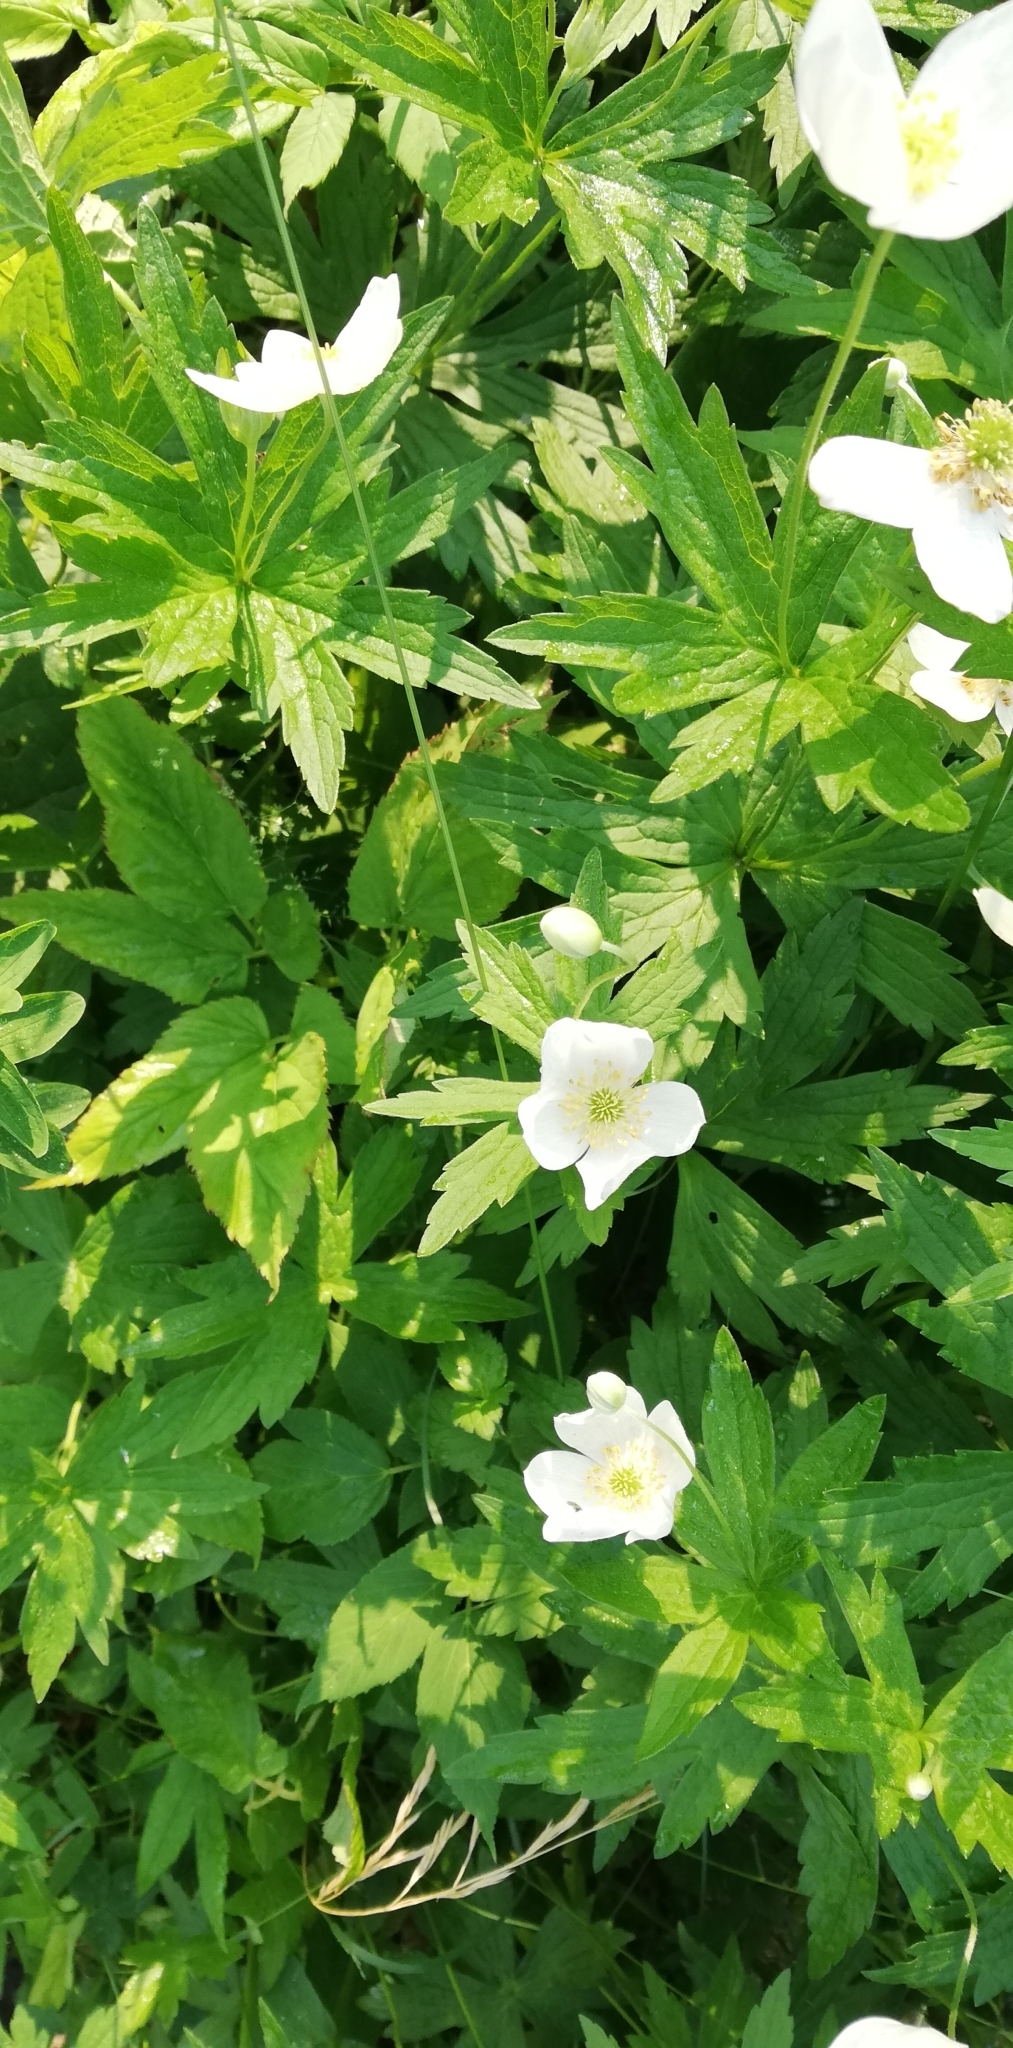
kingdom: Plantae
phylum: Tracheophyta
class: Magnoliopsida
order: Ranunculales
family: Ranunculaceae
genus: Anemonastrum
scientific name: Anemonastrum canadense
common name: Canada anemone
